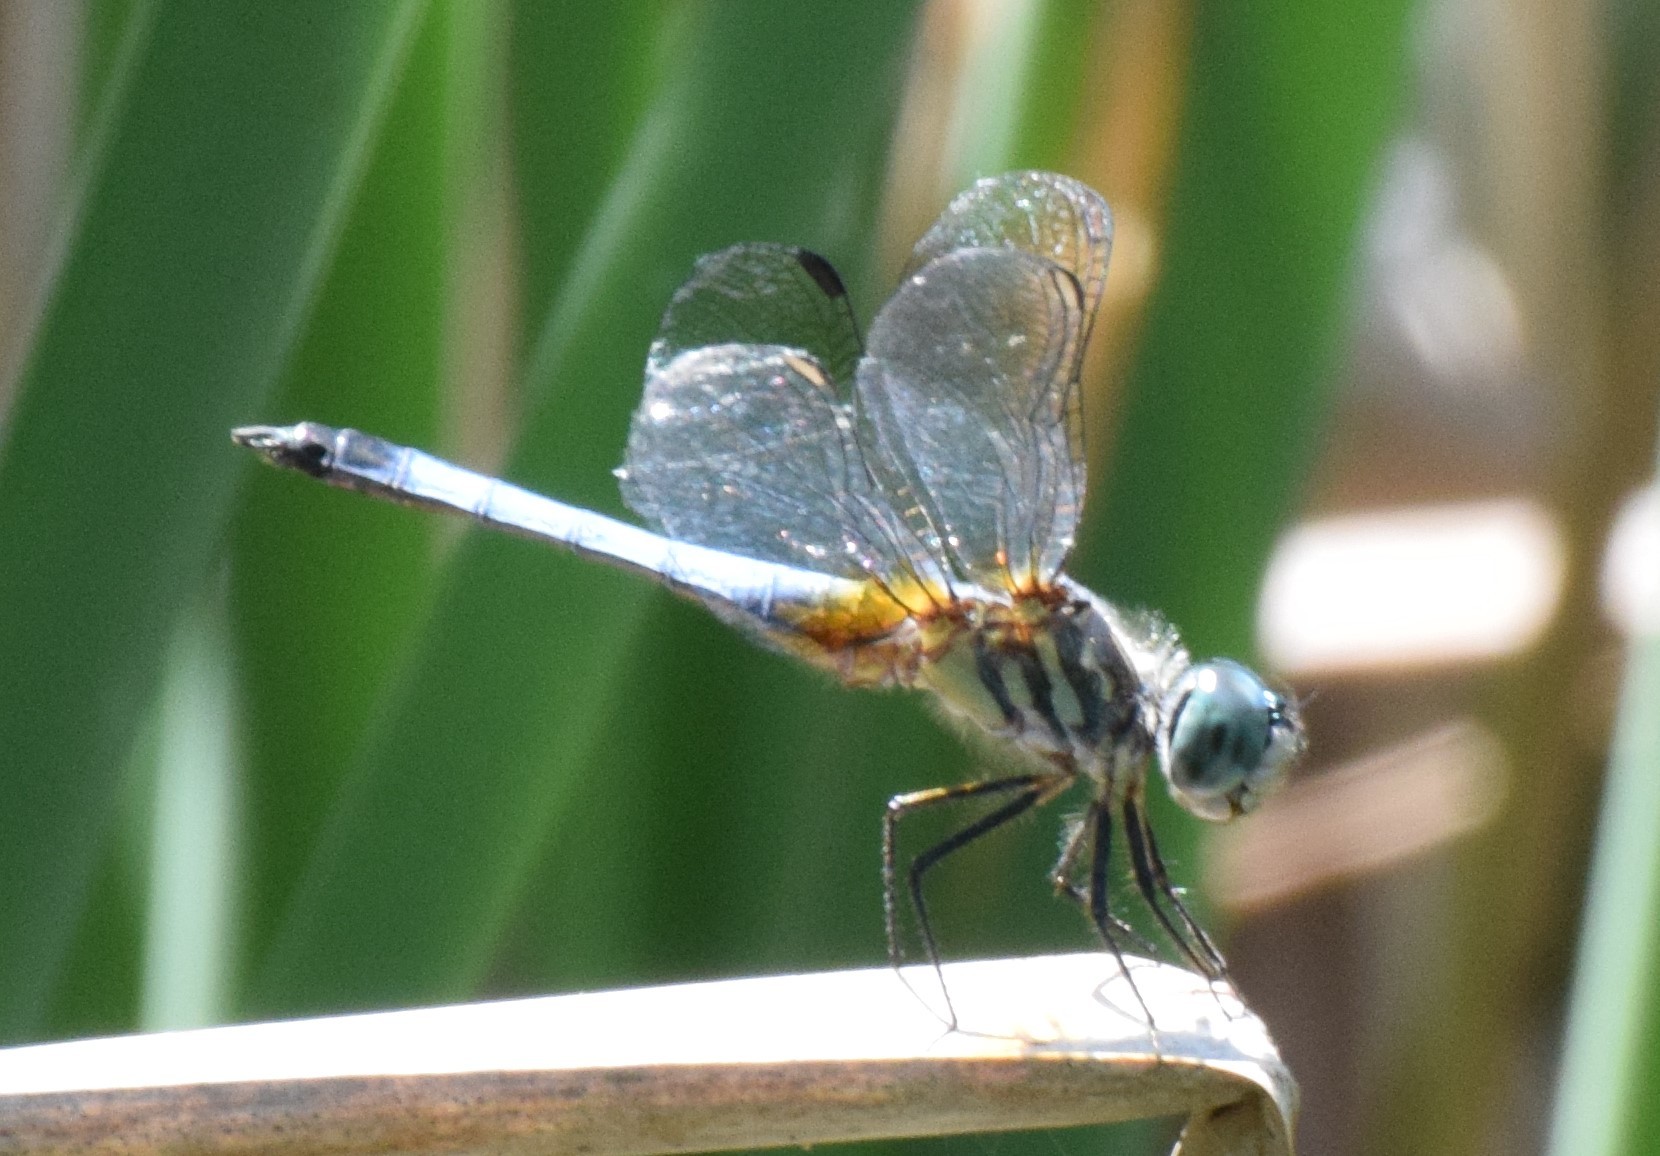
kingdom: Animalia
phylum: Arthropoda
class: Insecta
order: Odonata
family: Libellulidae
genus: Pachydiplax
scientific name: Pachydiplax longipennis
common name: Blue dasher
